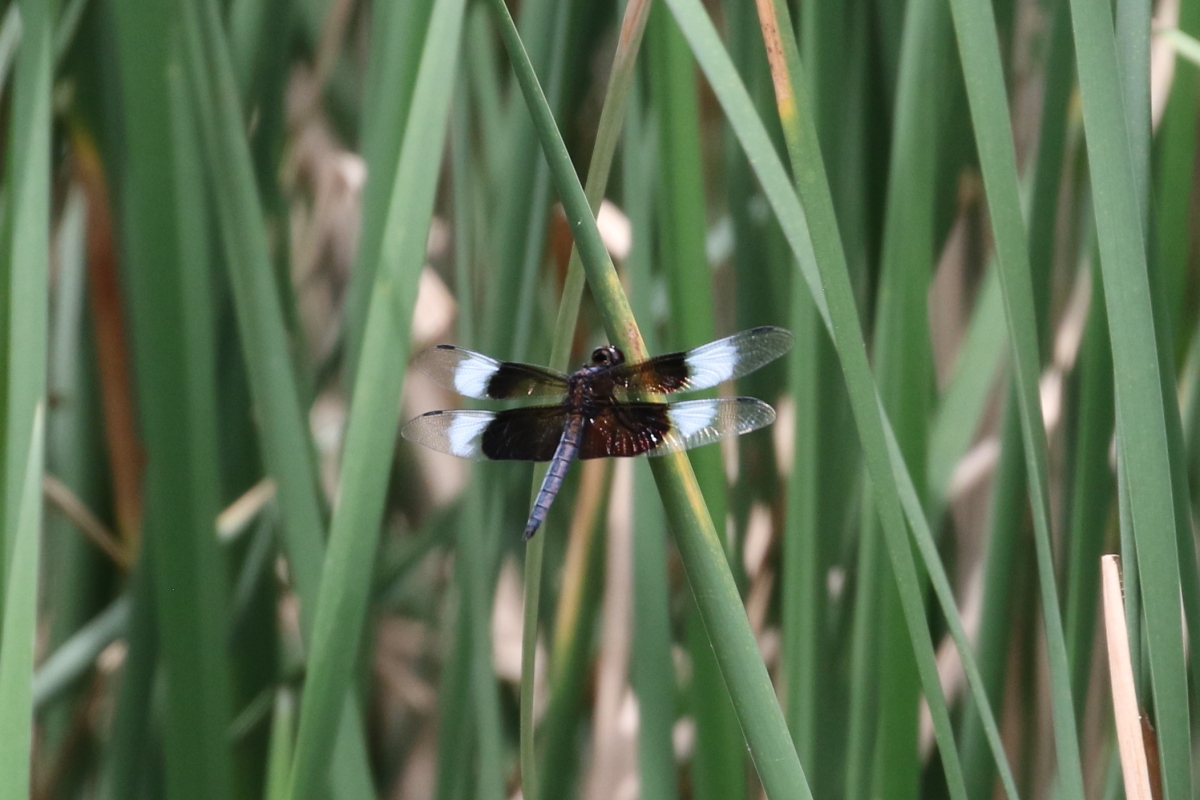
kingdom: Animalia
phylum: Arthropoda
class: Insecta
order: Odonata
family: Libellulidae
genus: Libellula
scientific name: Libellula luctuosa
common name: Widow skimmer
